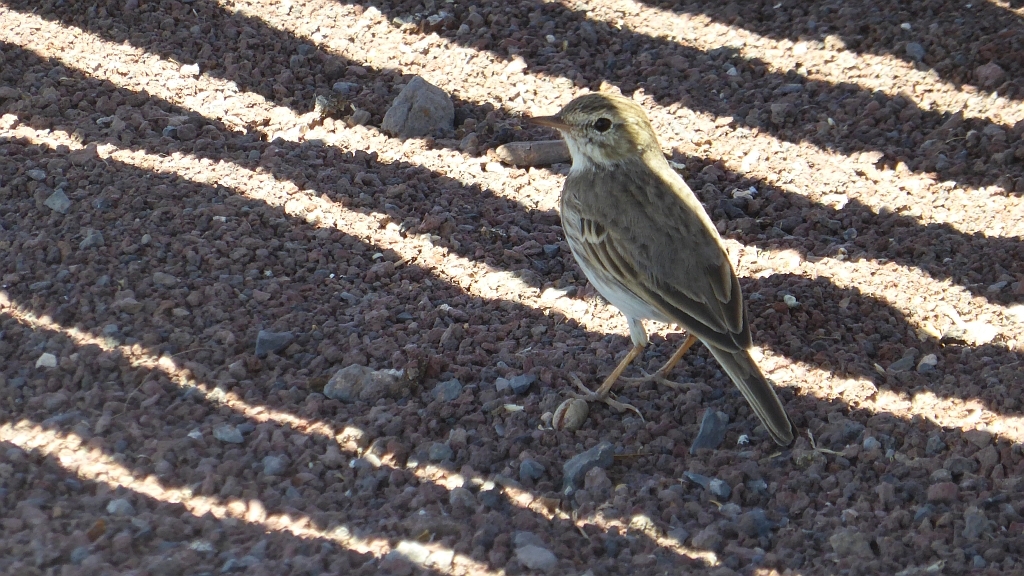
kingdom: Animalia
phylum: Chordata
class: Aves
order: Passeriformes
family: Motacillidae
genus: Anthus
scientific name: Anthus berthelotii
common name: Berthelot's pipit
